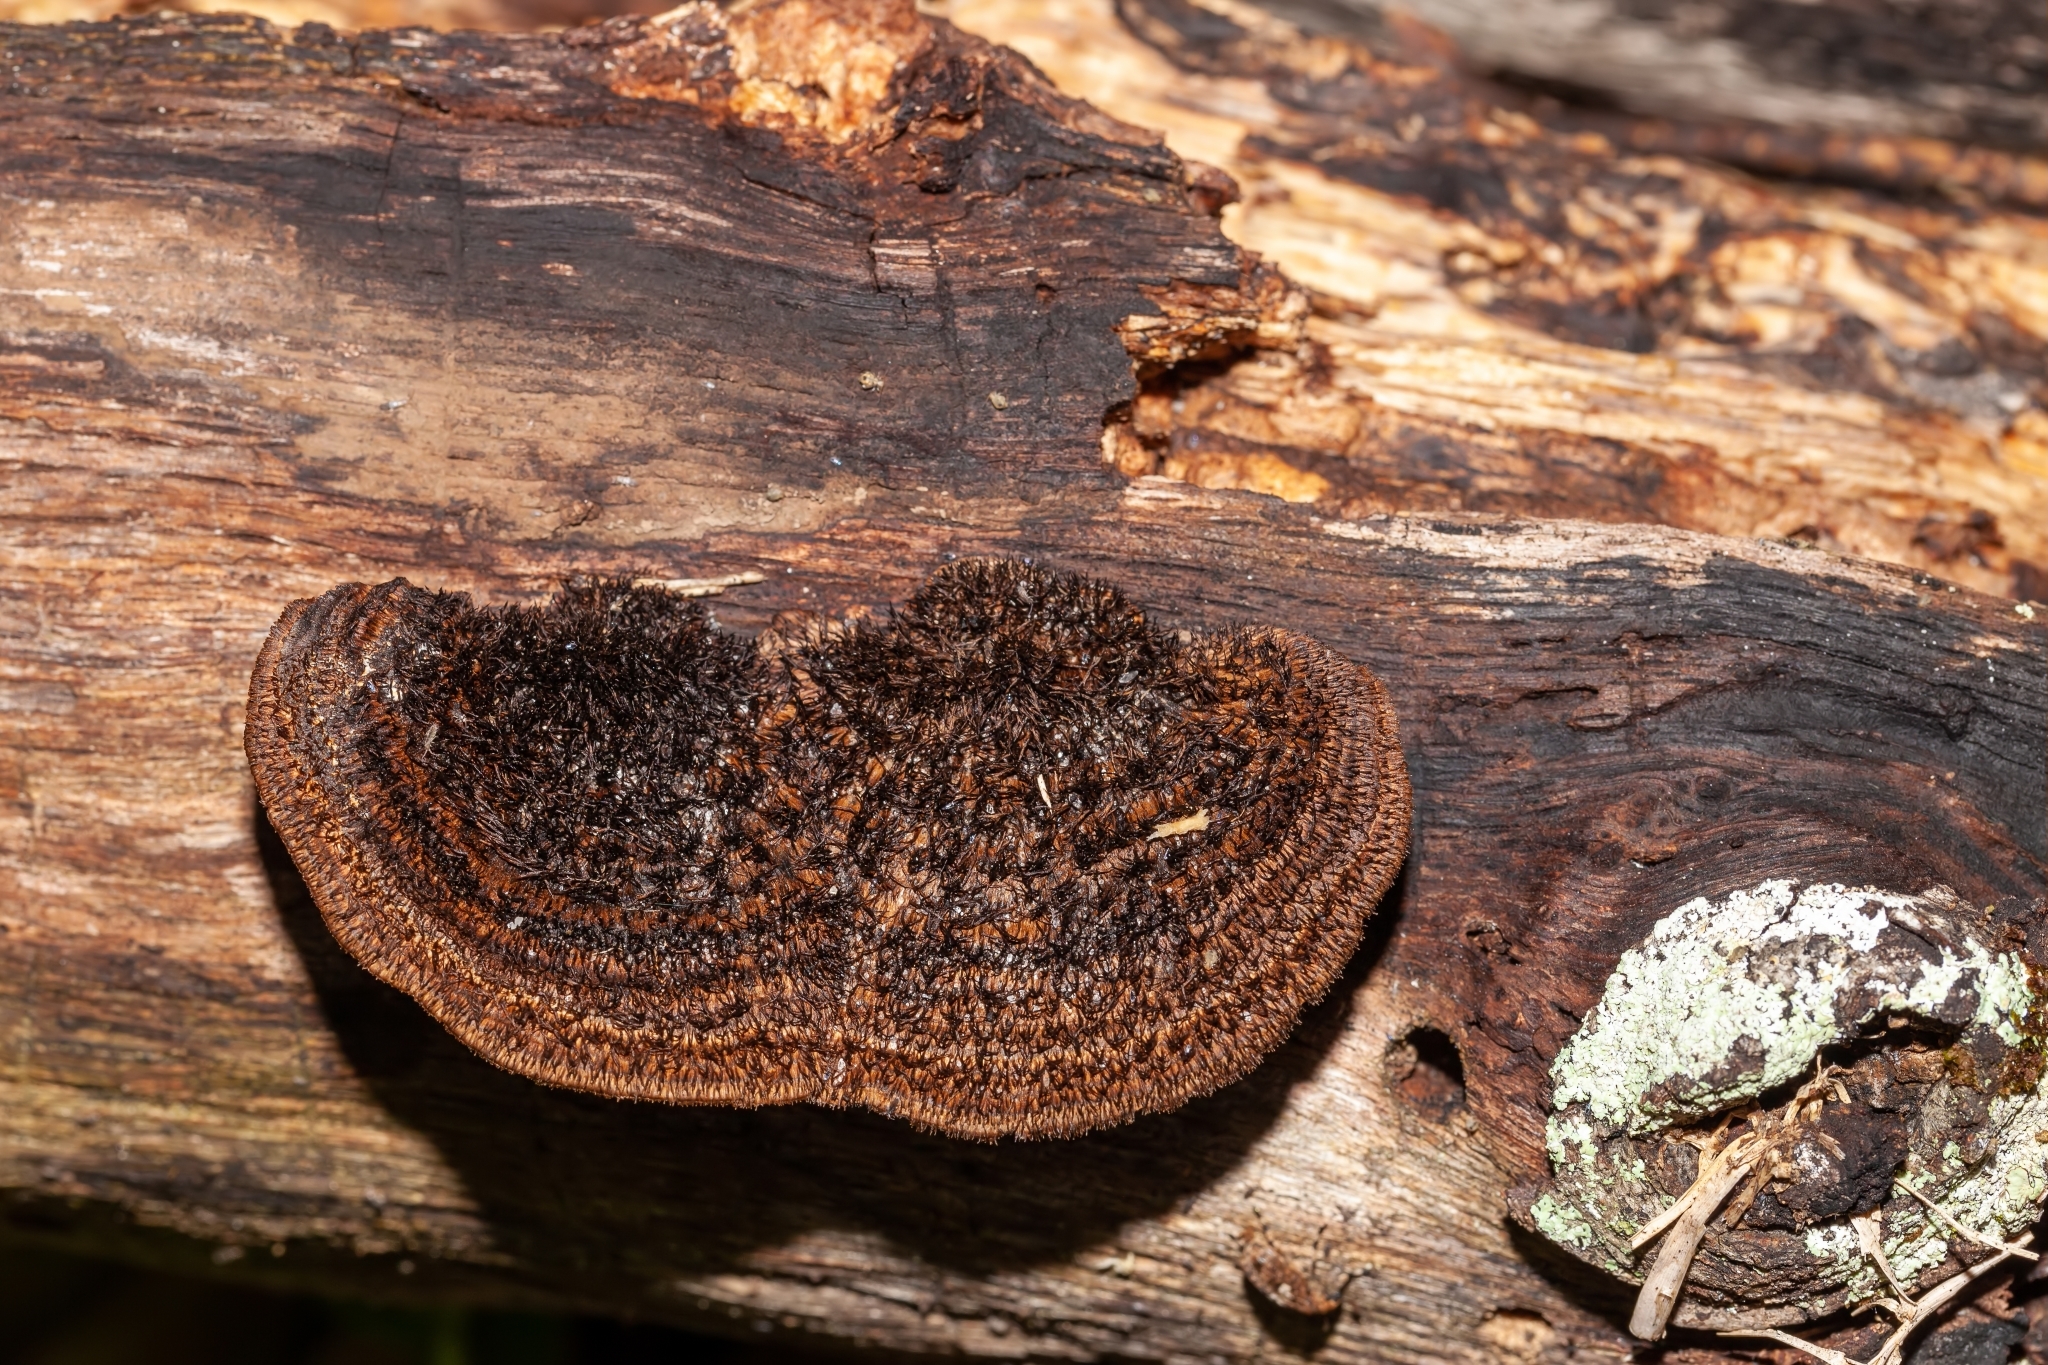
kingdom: Fungi
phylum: Basidiomycota
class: Agaricomycetes
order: Polyporales
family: Cerrenaceae
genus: Cerrena
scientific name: Cerrena hydnoides
